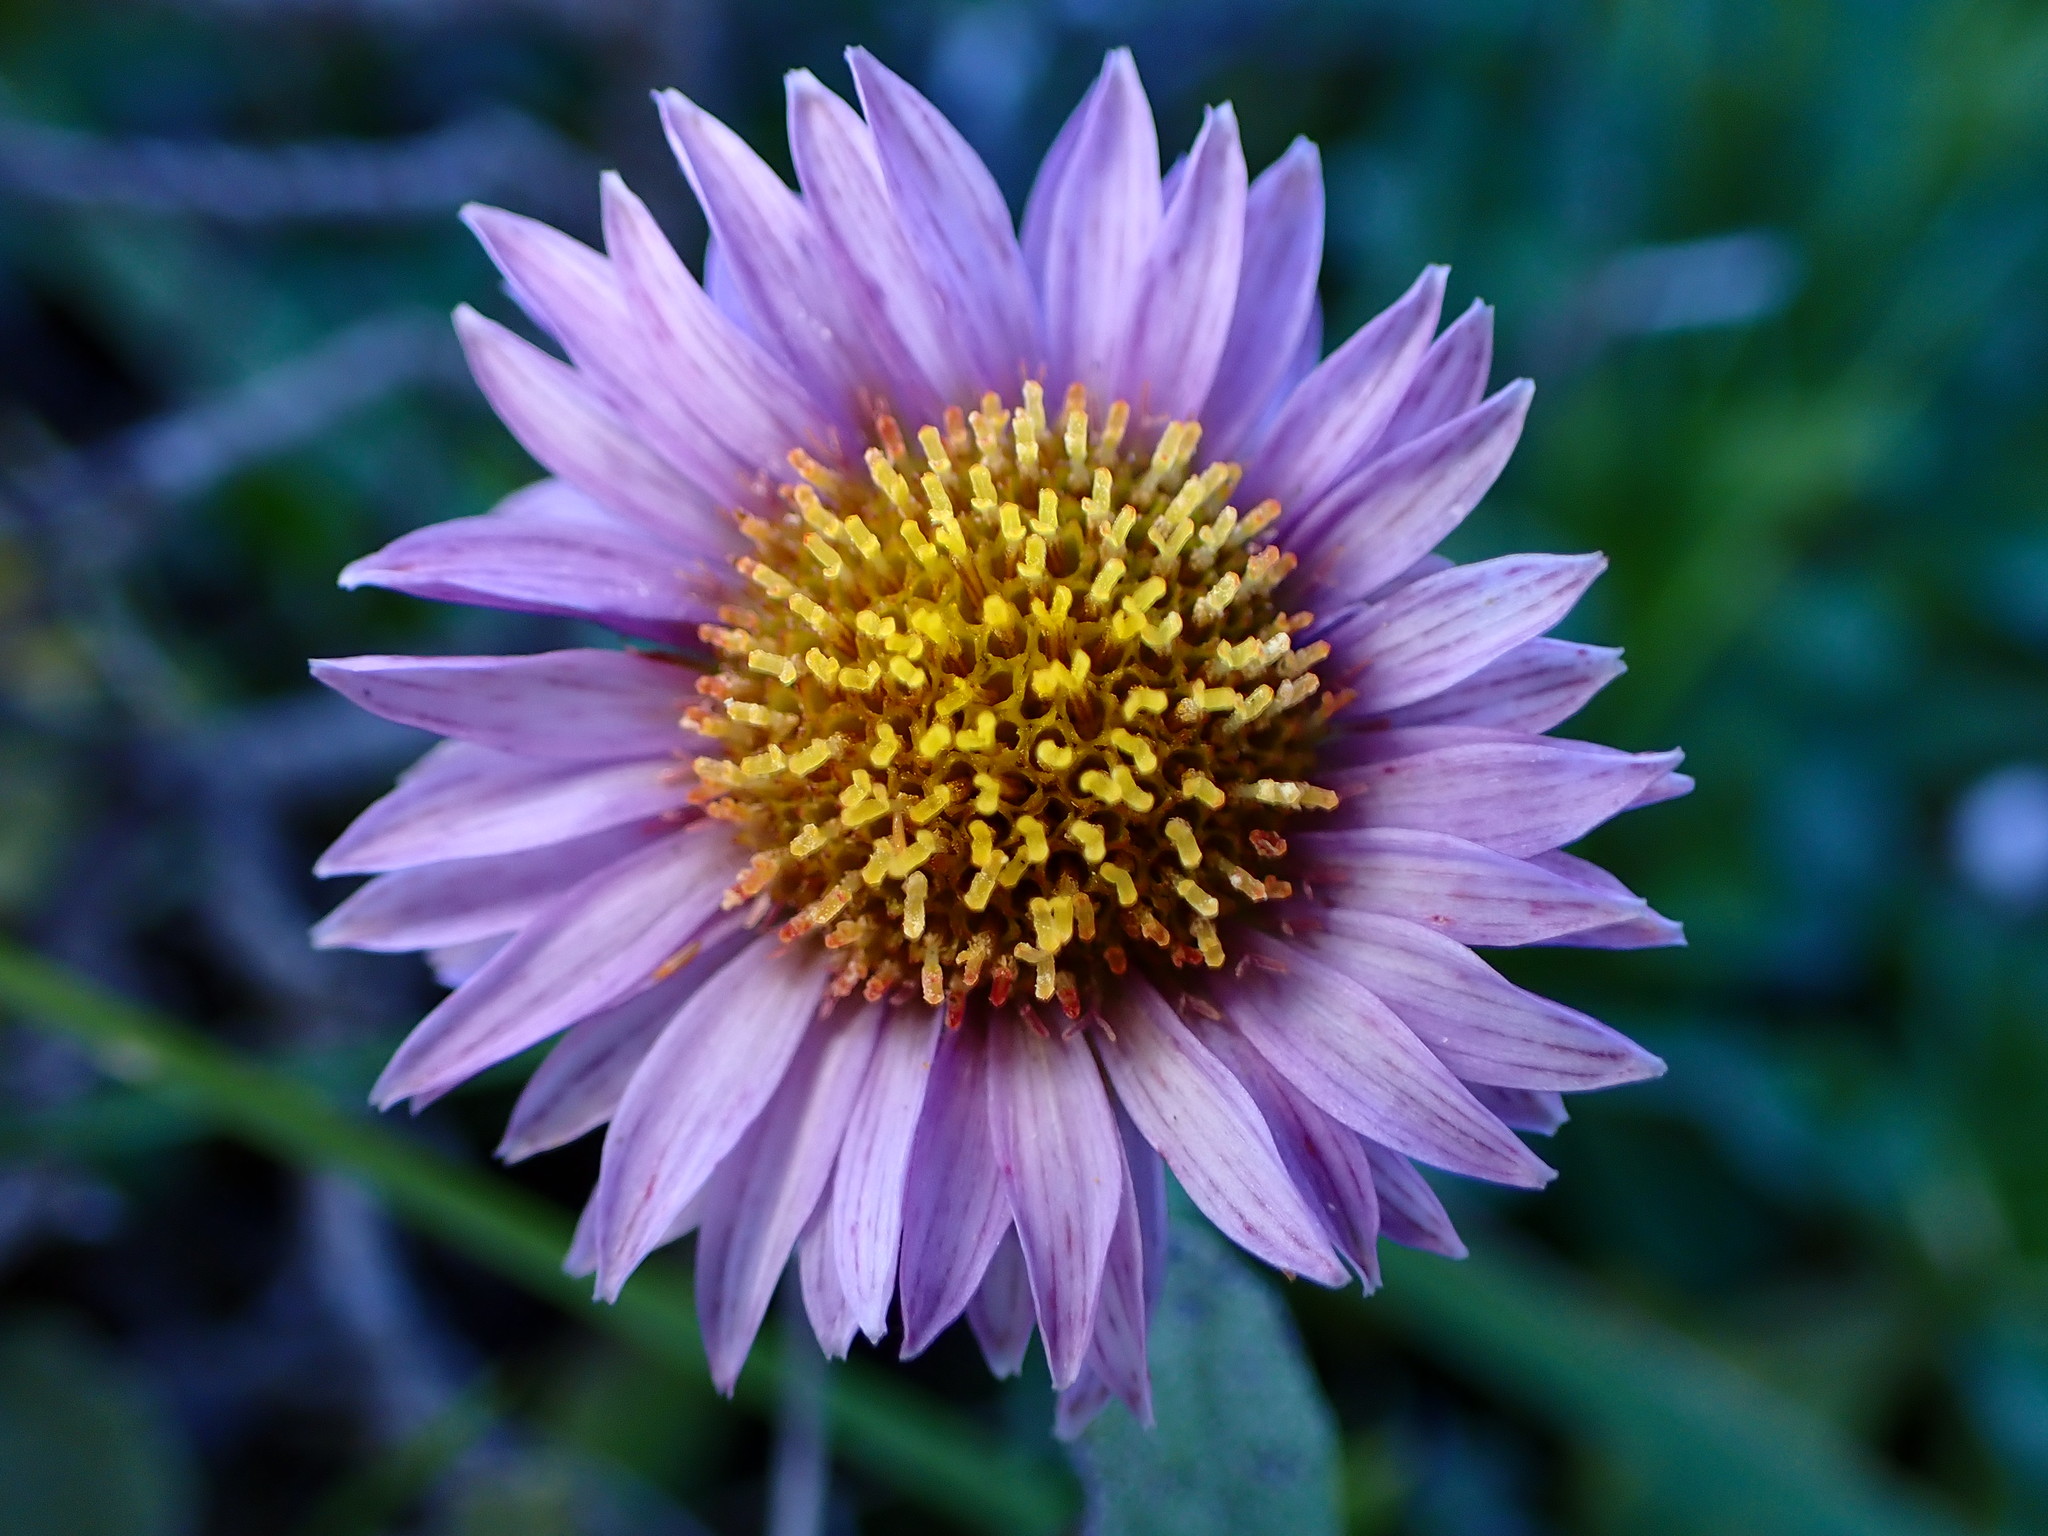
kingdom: Plantae
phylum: Tracheophyta
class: Magnoliopsida
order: Asterales
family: Asteraceae
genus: Erigeron
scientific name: Erigeron glaucus
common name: Seaside daisy
